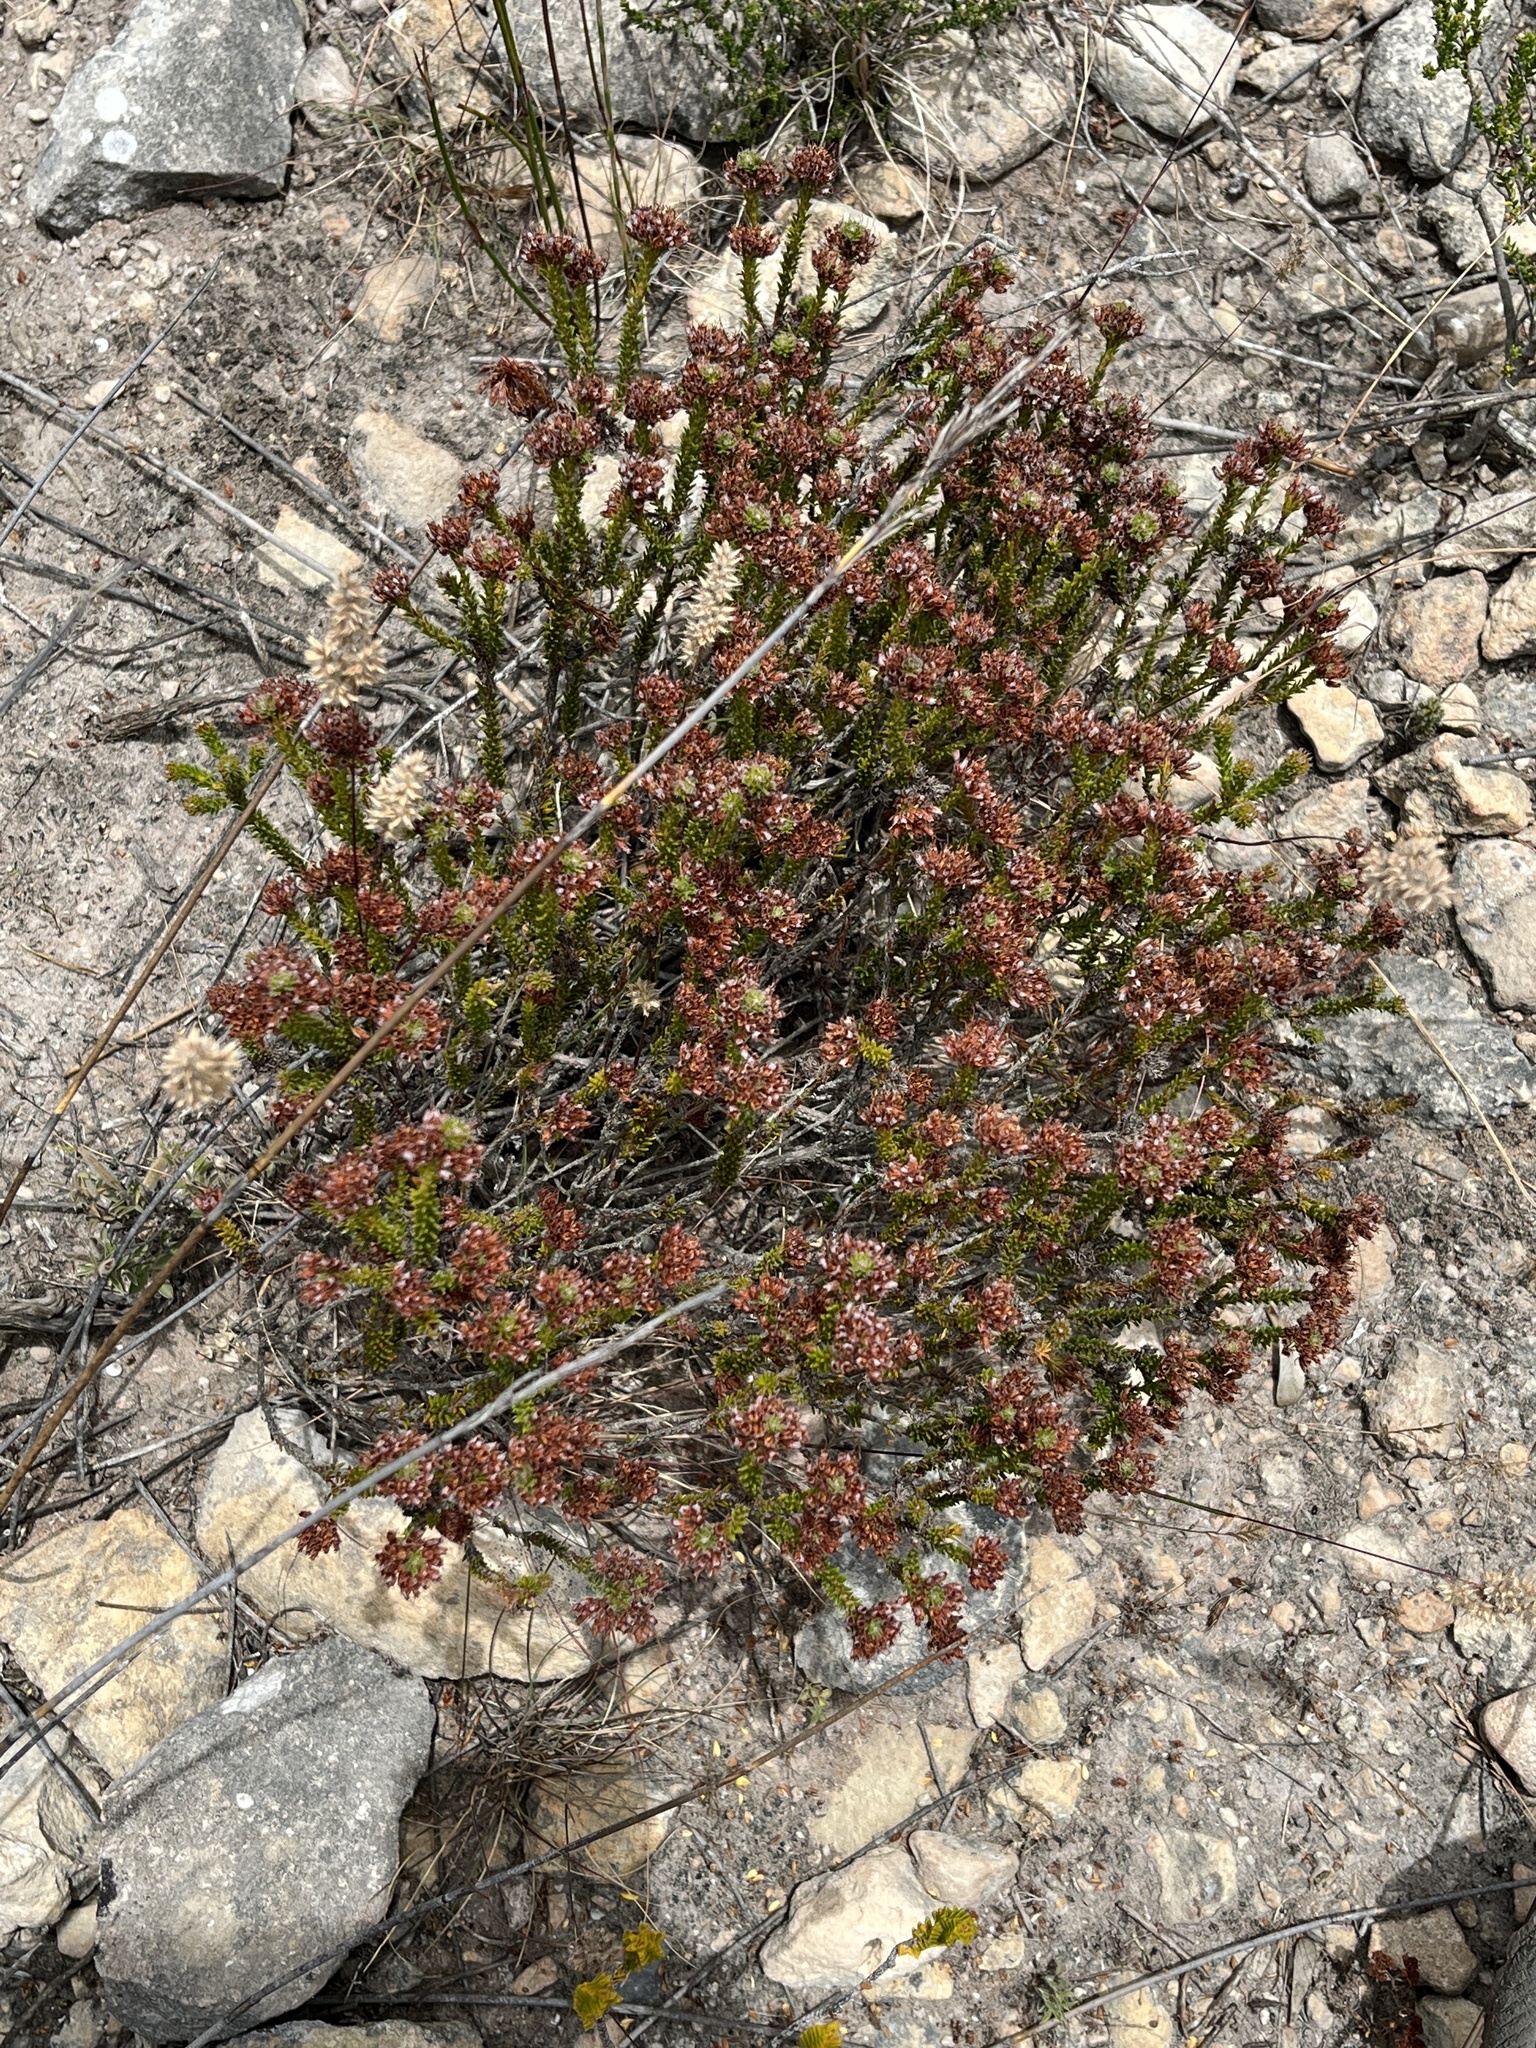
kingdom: Plantae
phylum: Tracheophyta
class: Magnoliopsida
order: Ericales
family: Ericaceae
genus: Erica
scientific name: Erica bruniifolia
